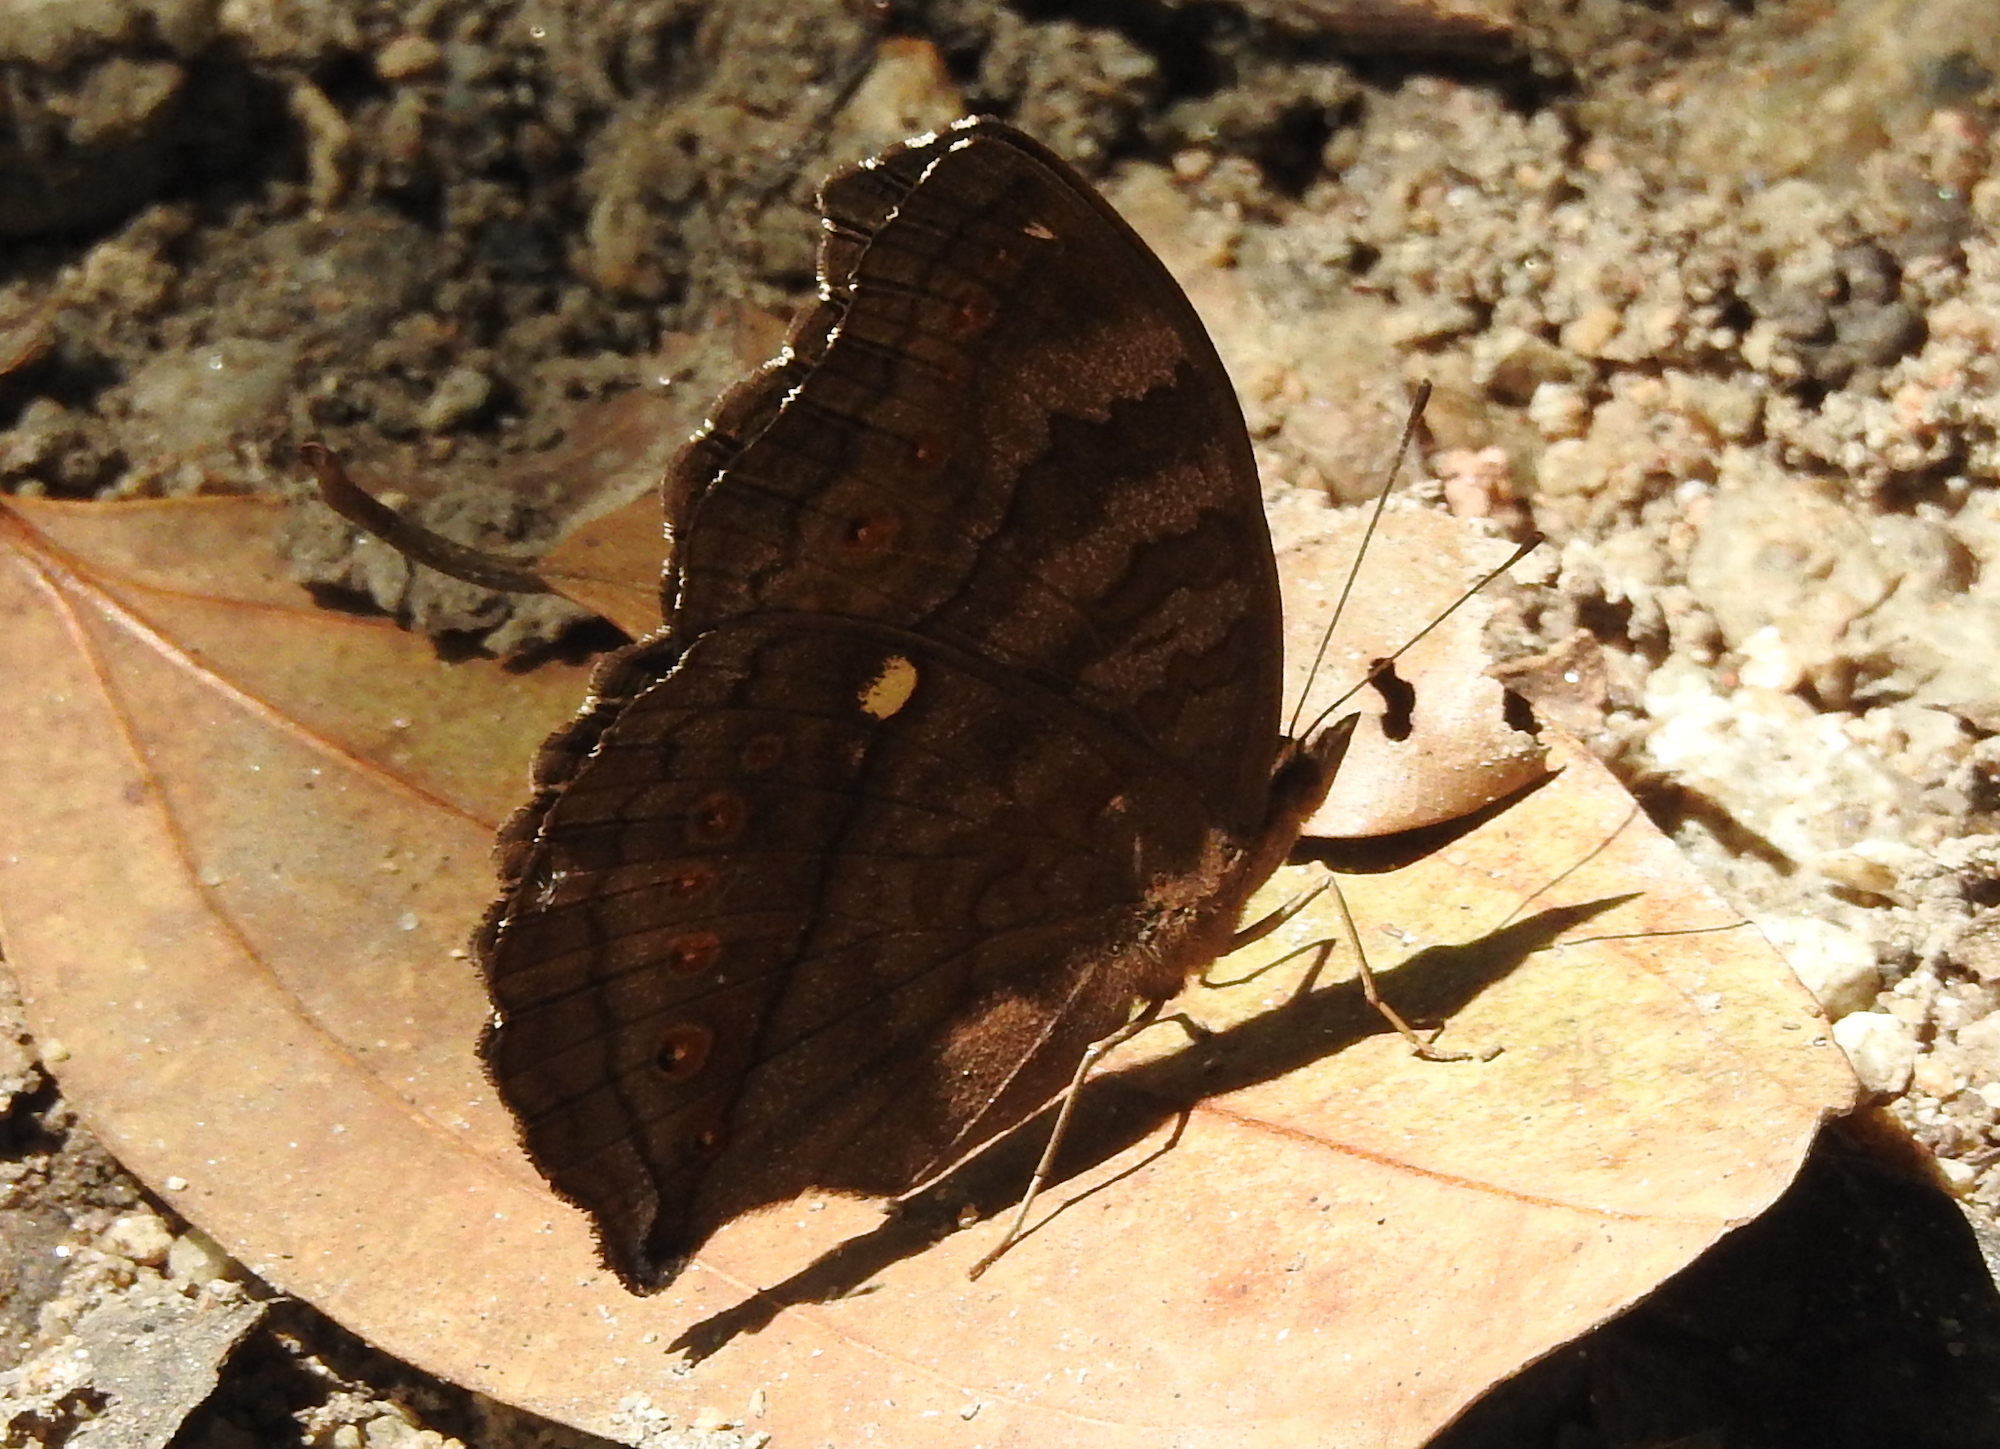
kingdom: Animalia
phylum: Arthropoda
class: Insecta
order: Lepidoptera
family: Nymphalidae
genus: Junonia
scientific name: Junonia hedonia
